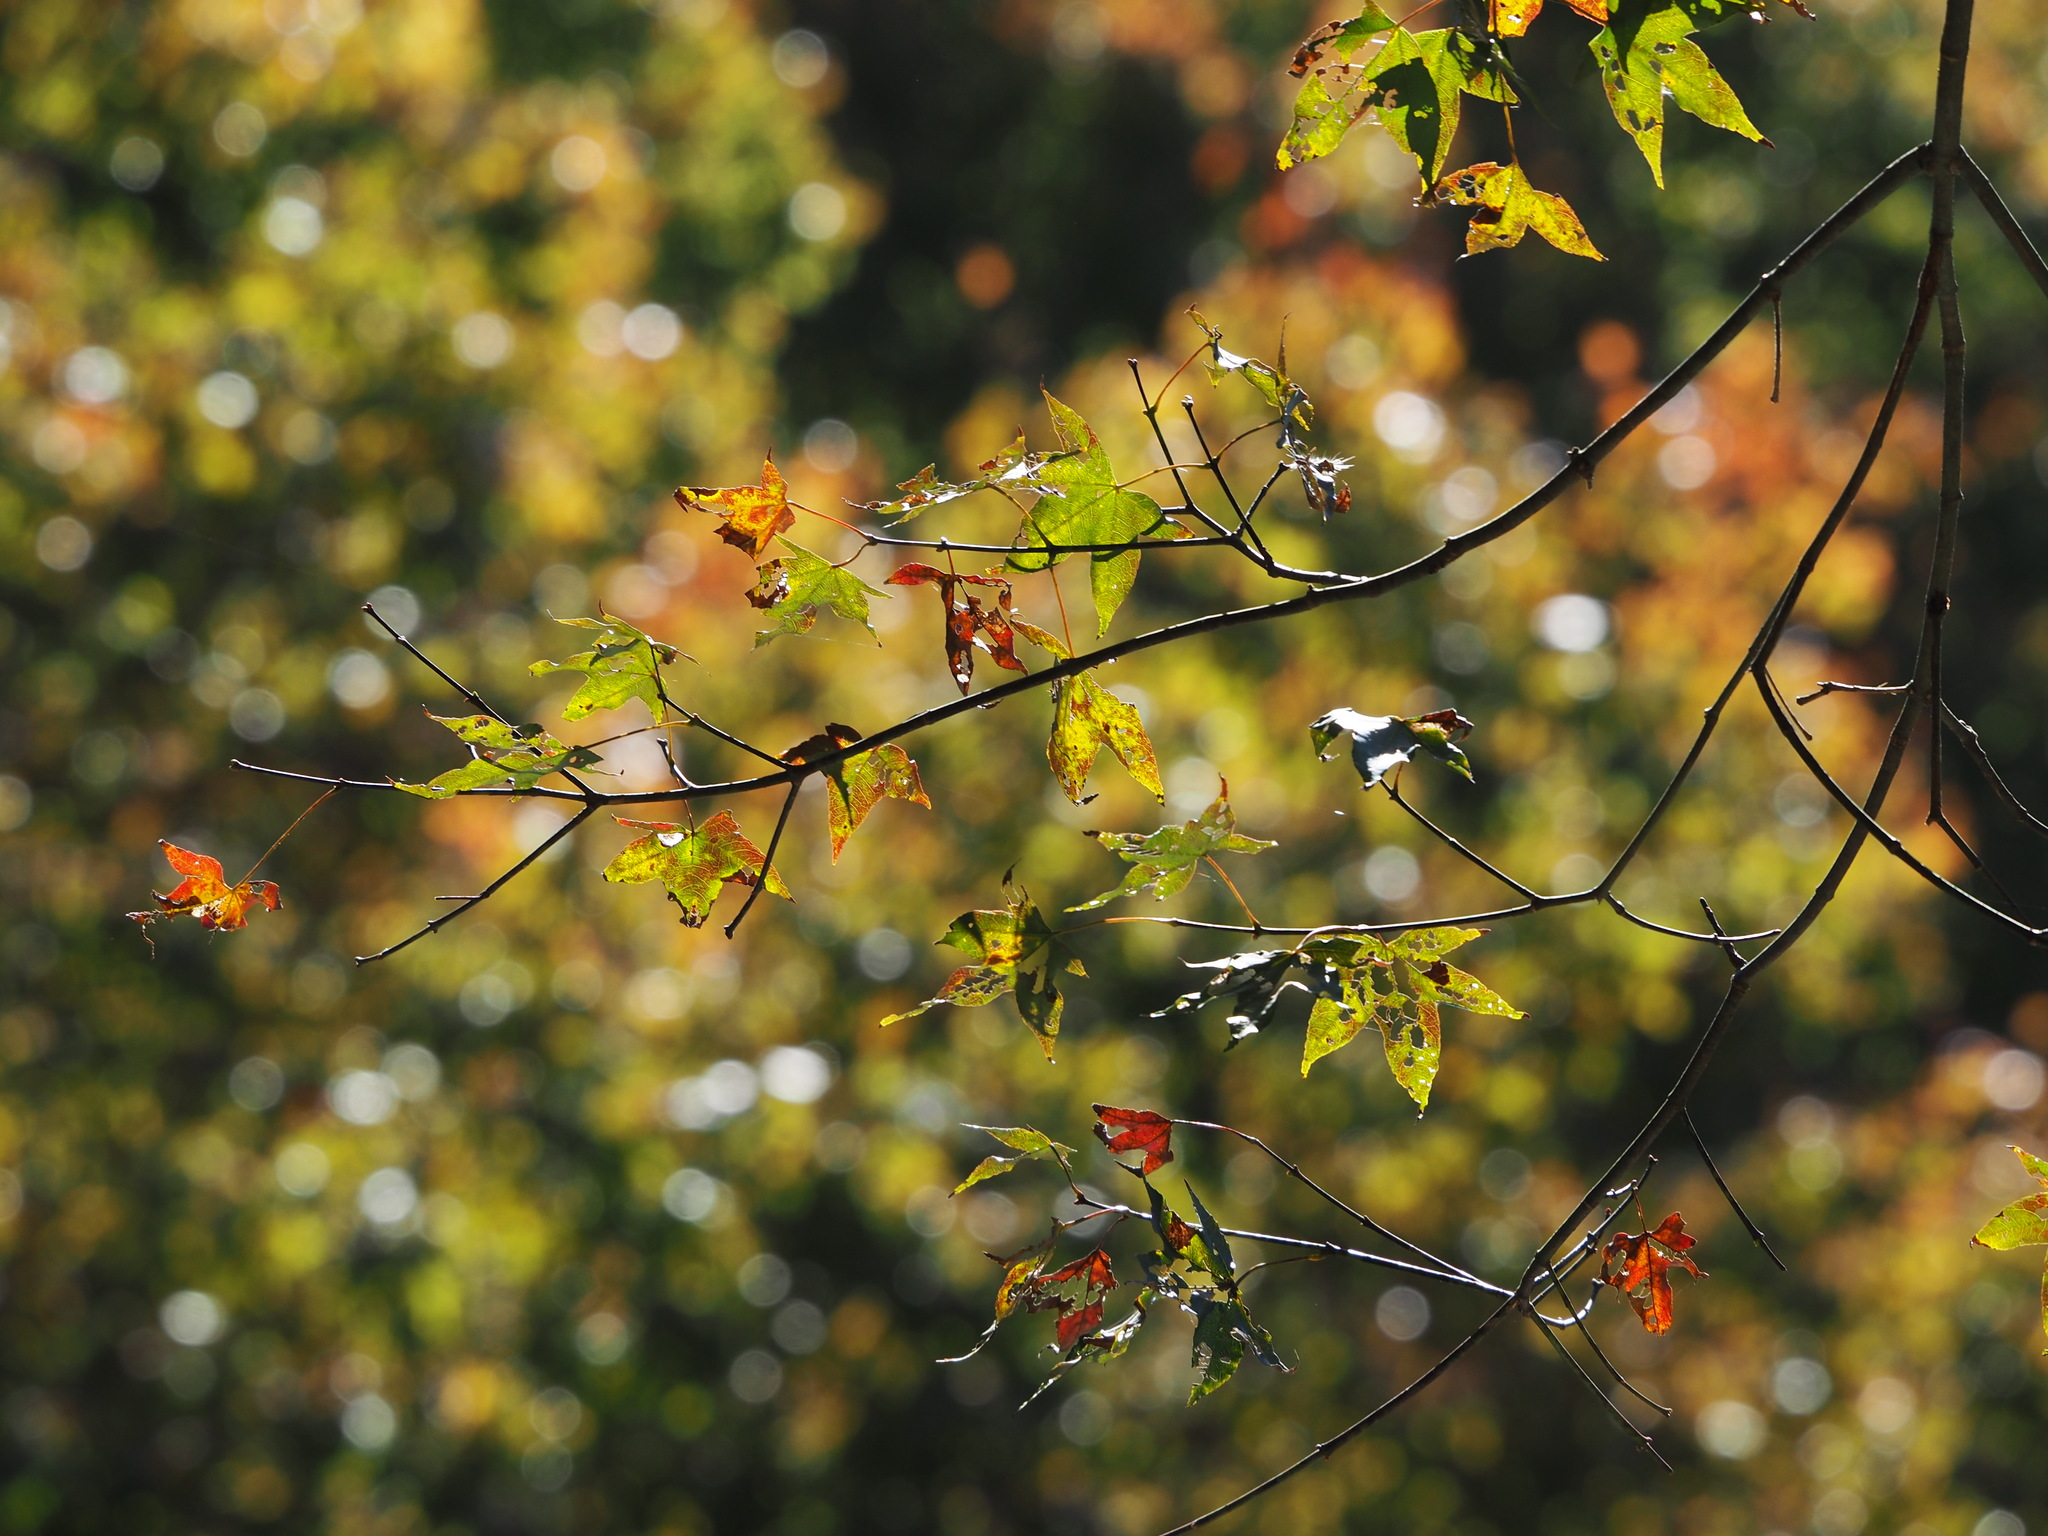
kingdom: Plantae
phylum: Tracheophyta
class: Magnoliopsida
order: Sapindales
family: Sapindaceae
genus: Acer
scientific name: Acer serrulatum
